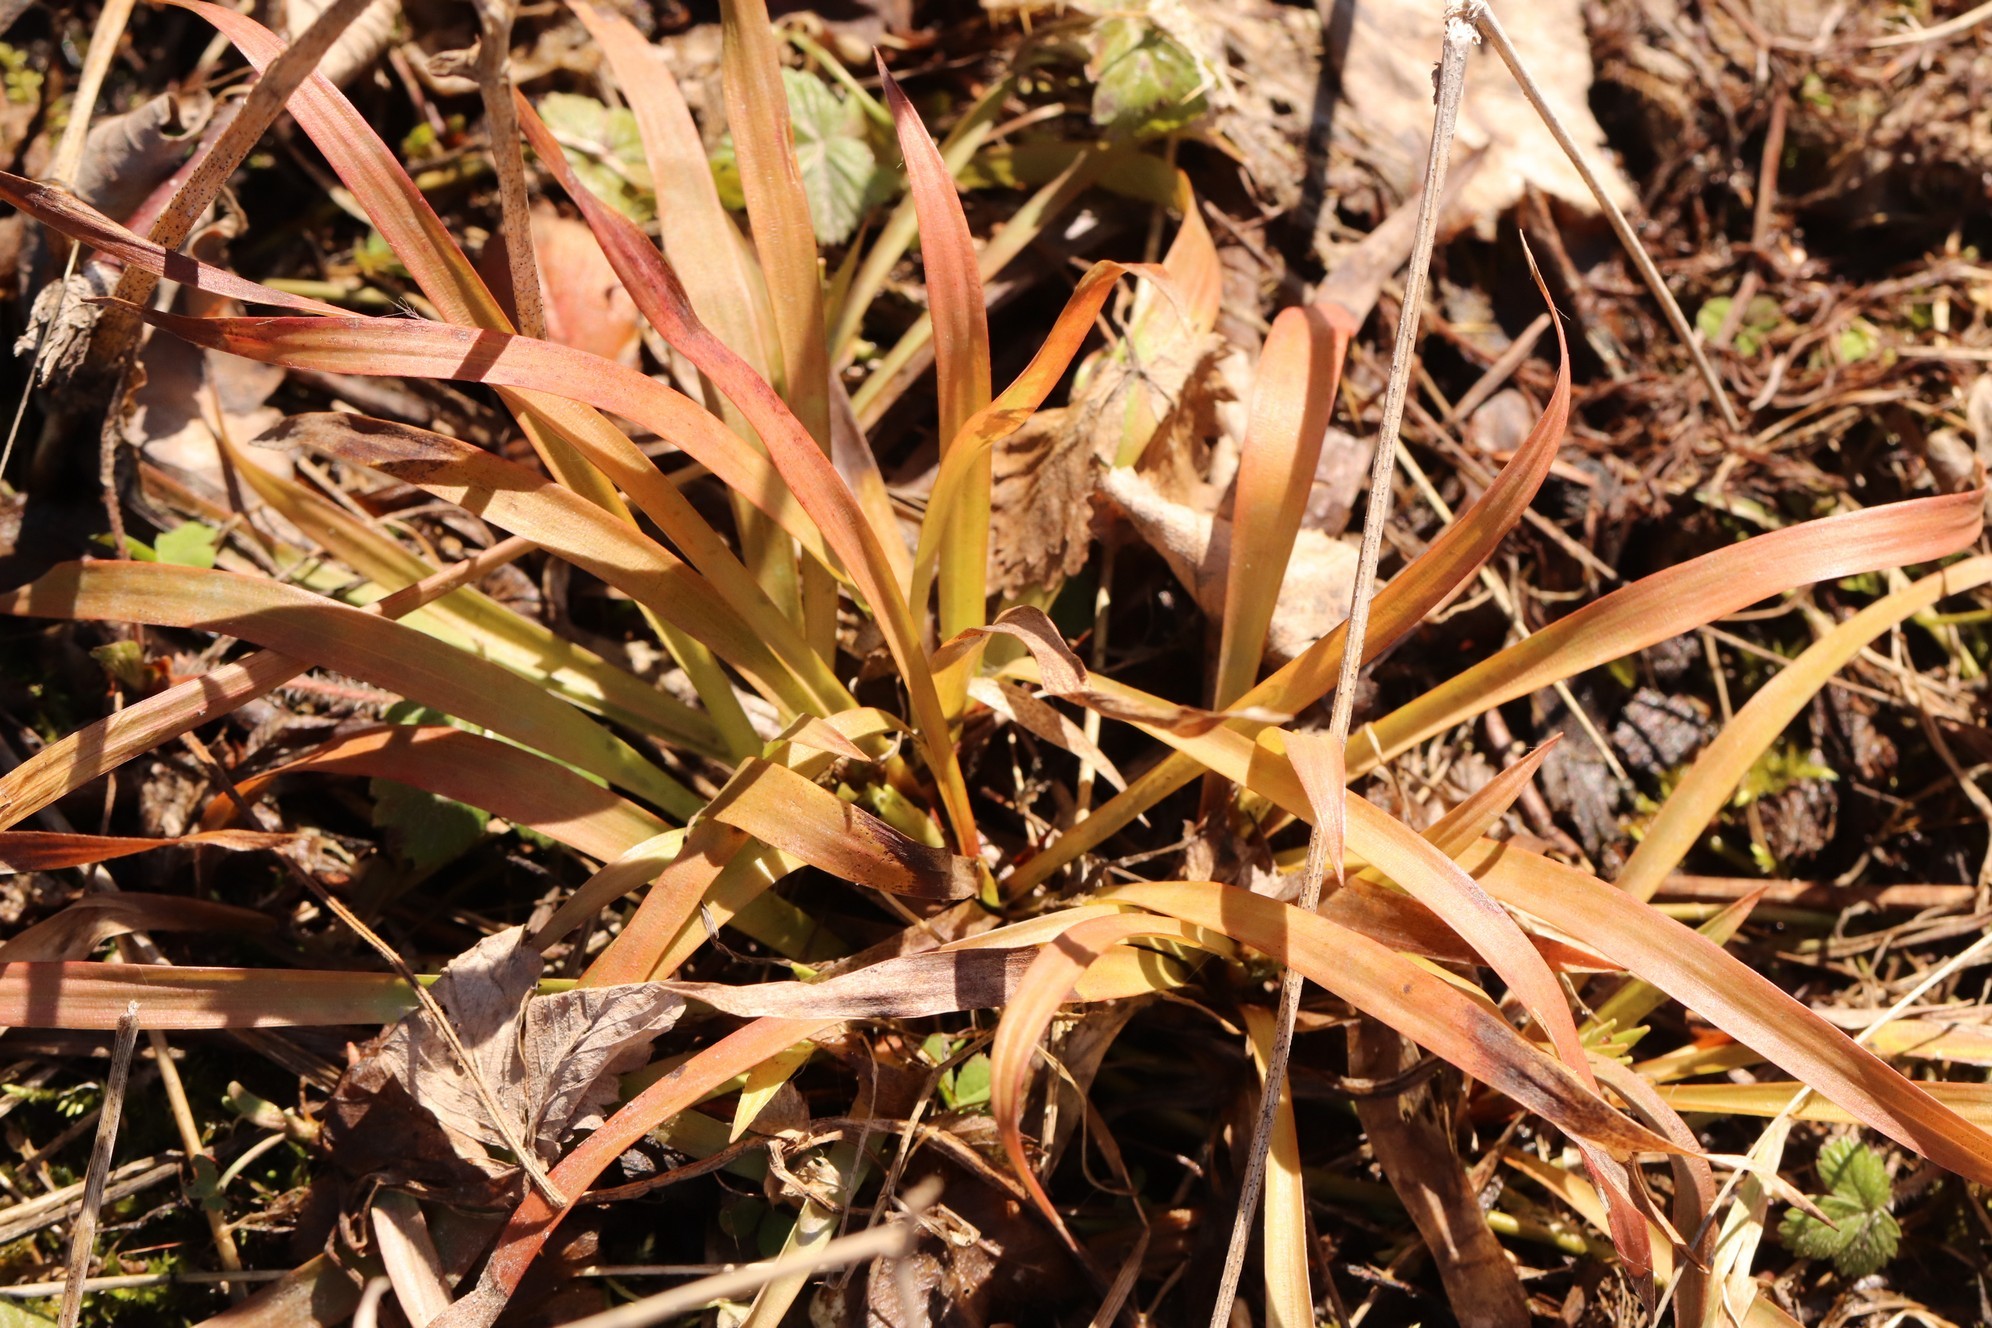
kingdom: Plantae
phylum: Tracheophyta
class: Liliopsida
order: Poales
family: Juncaceae
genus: Luzula
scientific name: Luzula pilosa
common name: Hairy wood-rush
